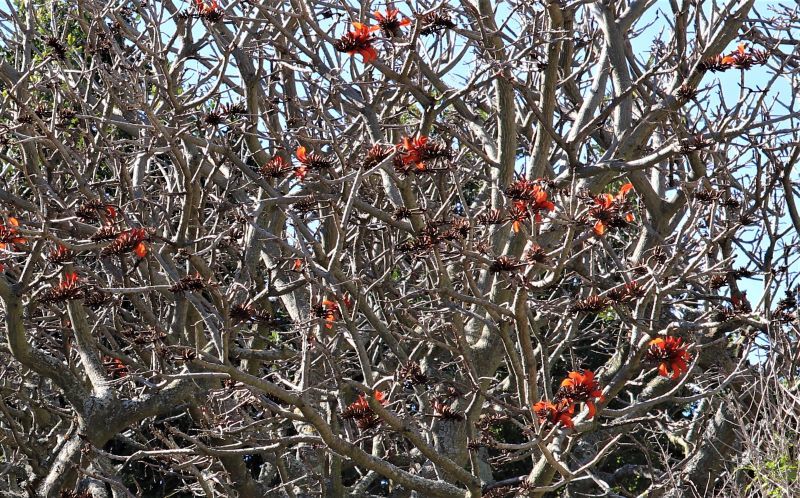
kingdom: Plantae
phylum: Tracheophyta
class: Magnoliopsida
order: Fabales
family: Fabaceae
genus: Erythrina
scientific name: Erythrina caffra
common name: Coast coral tree
